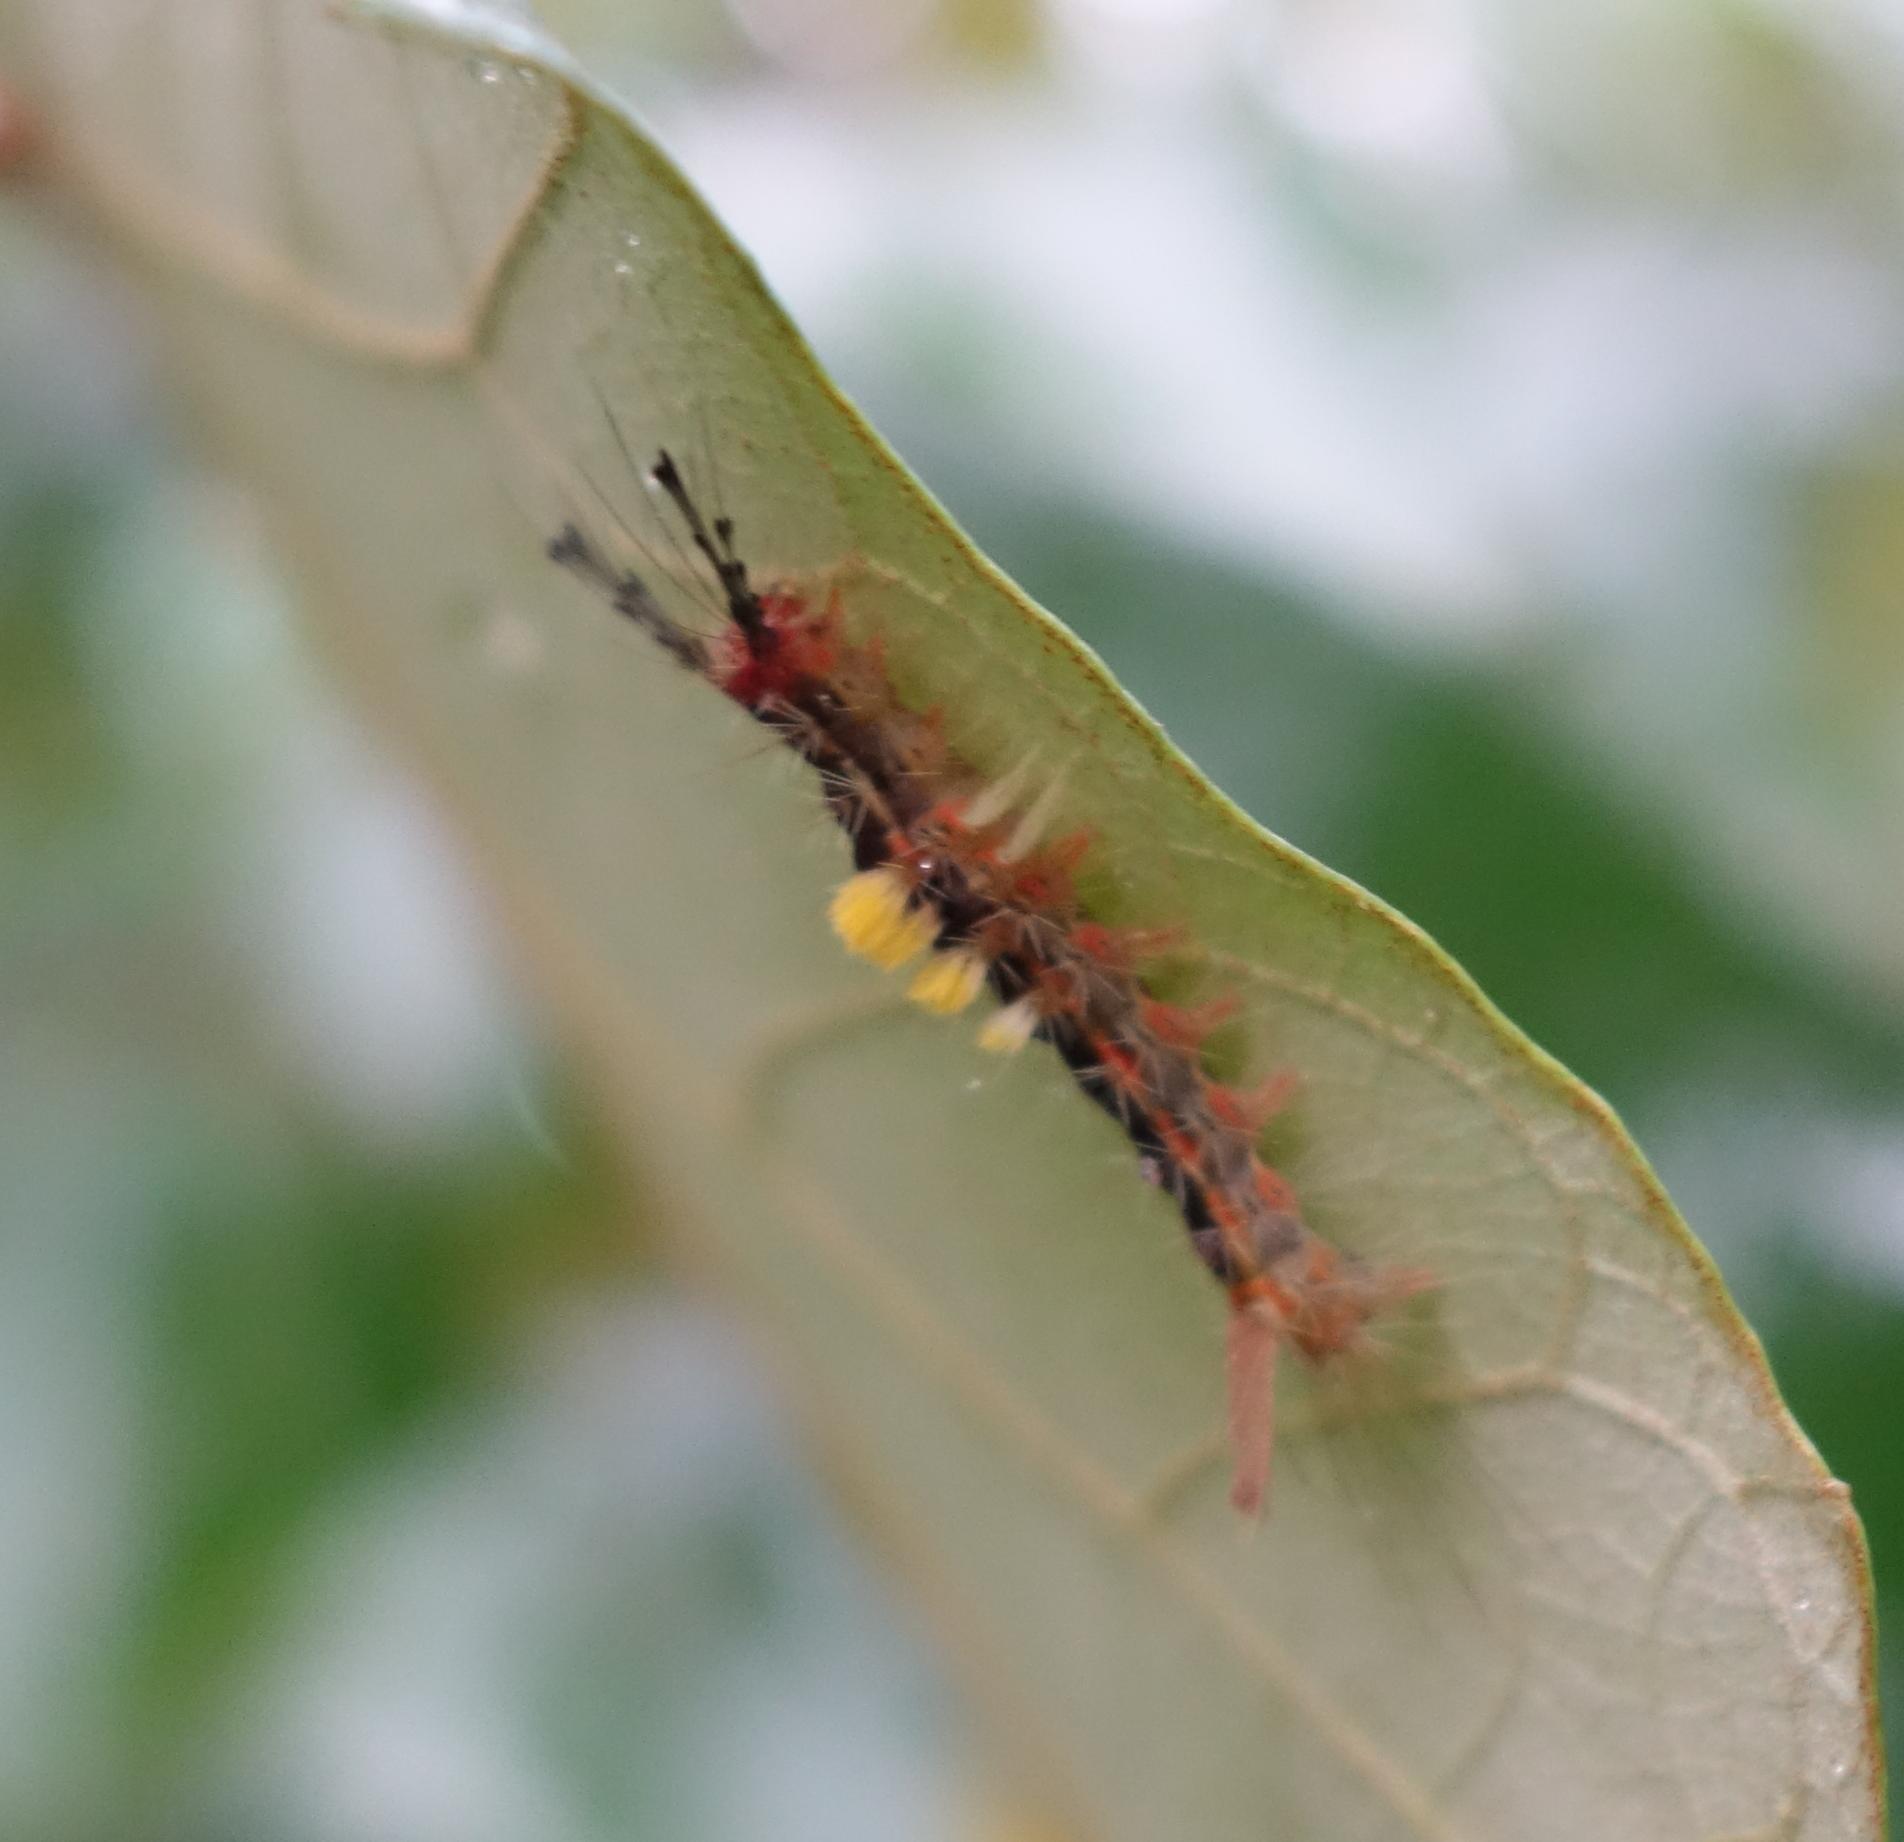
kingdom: Animalia
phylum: Arthropoda
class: Insecta
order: Lepidoptera
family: Erebidae
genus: Orgyia
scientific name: Orgyia postica
